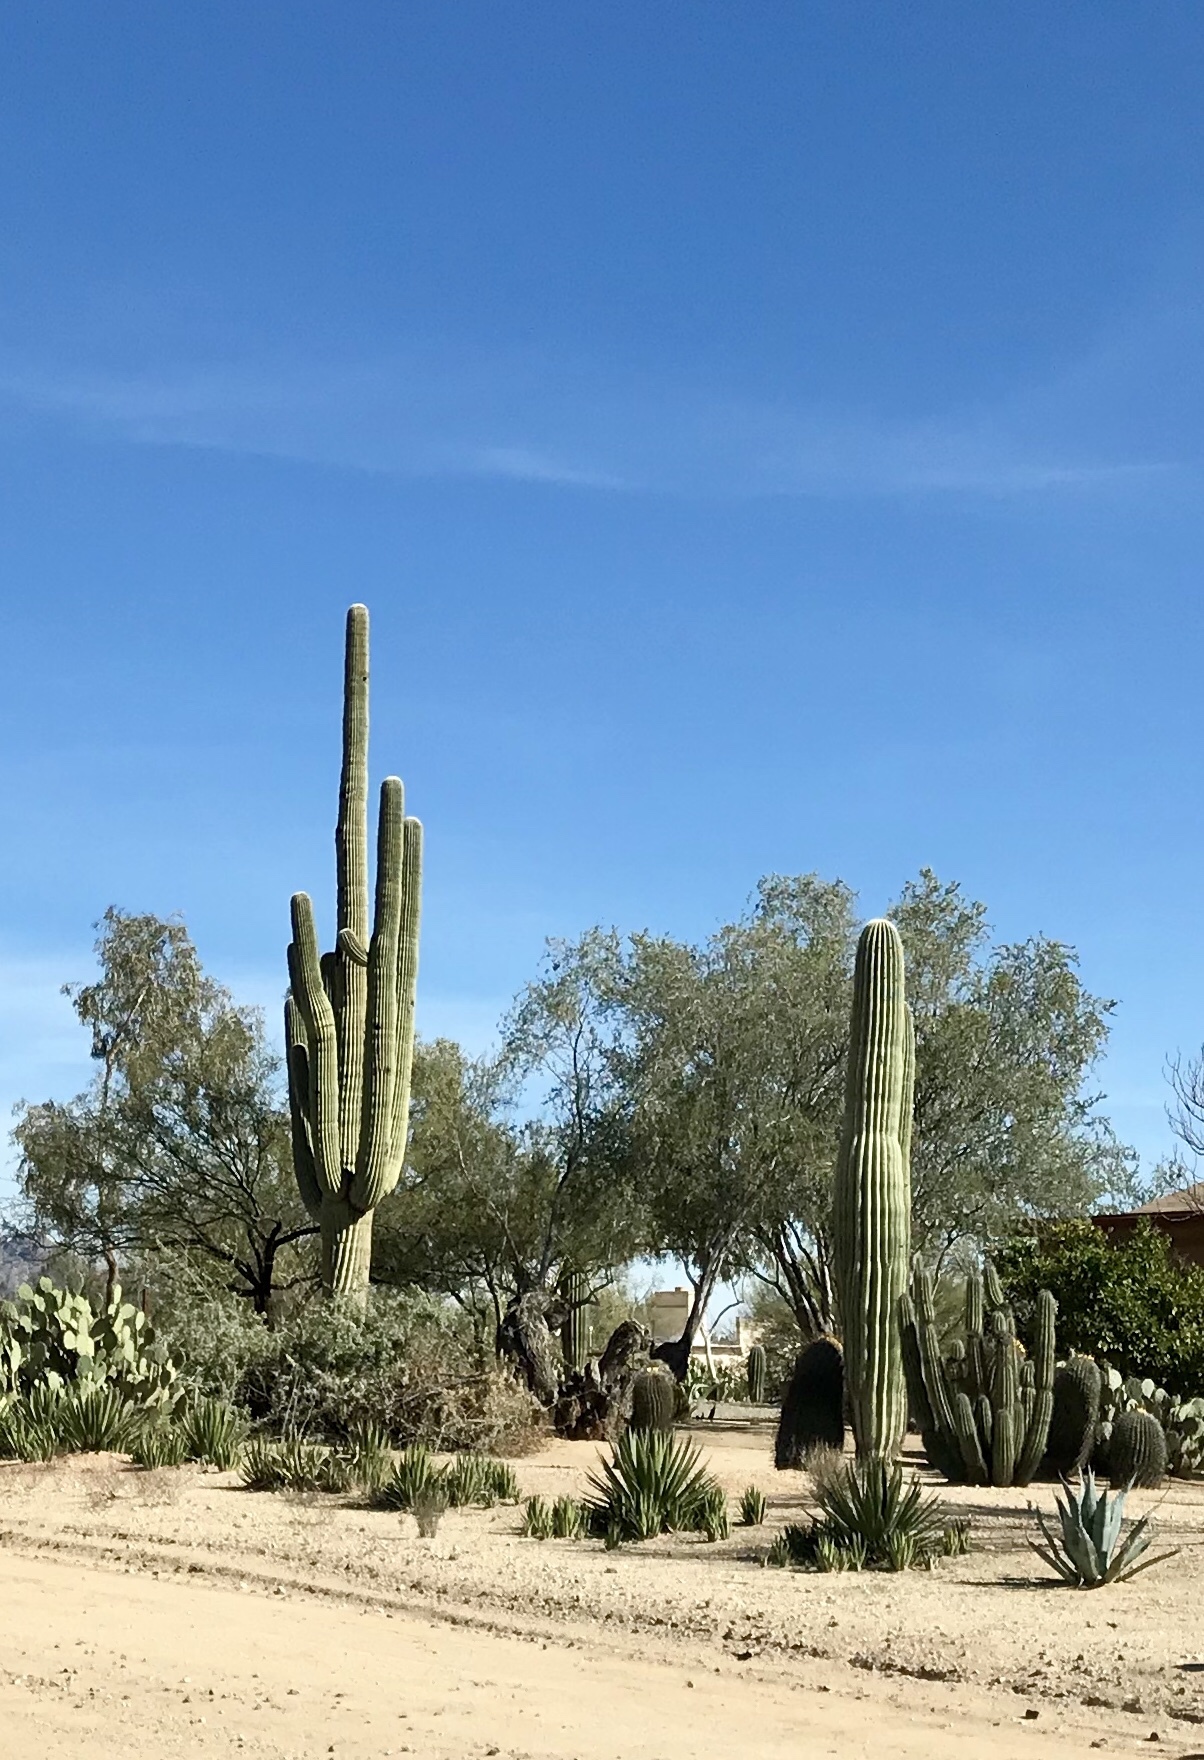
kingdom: Plantae
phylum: Tracheophyta
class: Magnoliopsida
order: Caryophyllales
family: Cactaceae
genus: Carnegiea
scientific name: Carnegiea gigantea
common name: Saguaro
